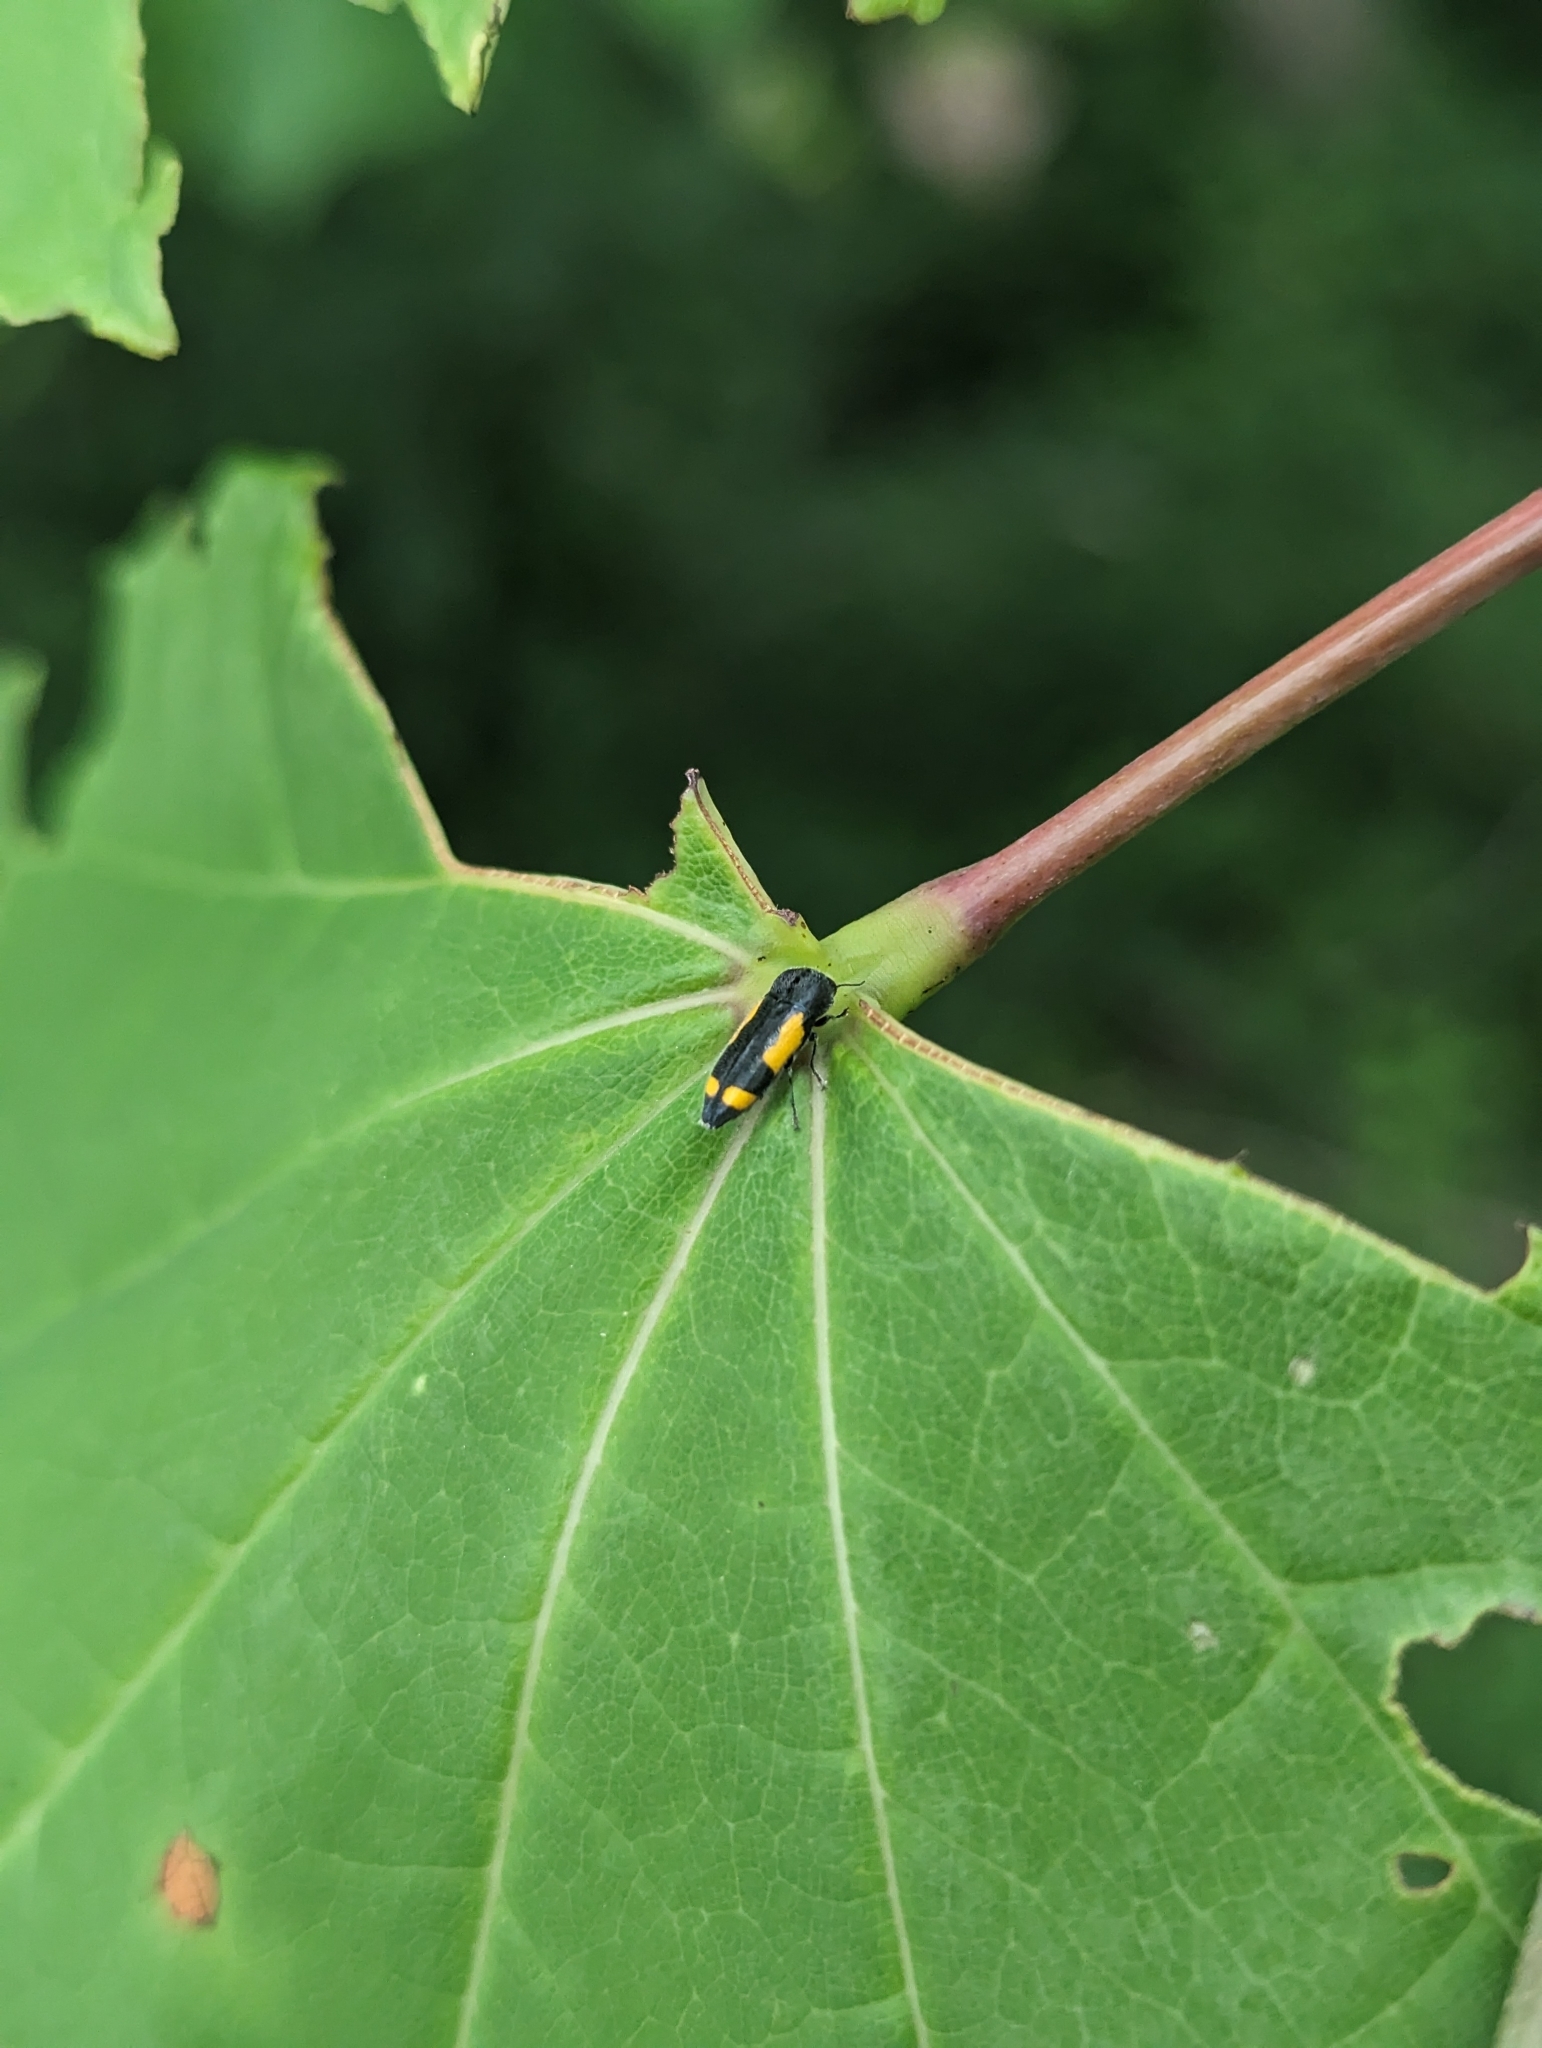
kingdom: Animalia
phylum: Arthropoda
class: Insecta
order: Coleoptera
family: Buprestidae
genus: Ptosima
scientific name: Ptosima gibbicollis
